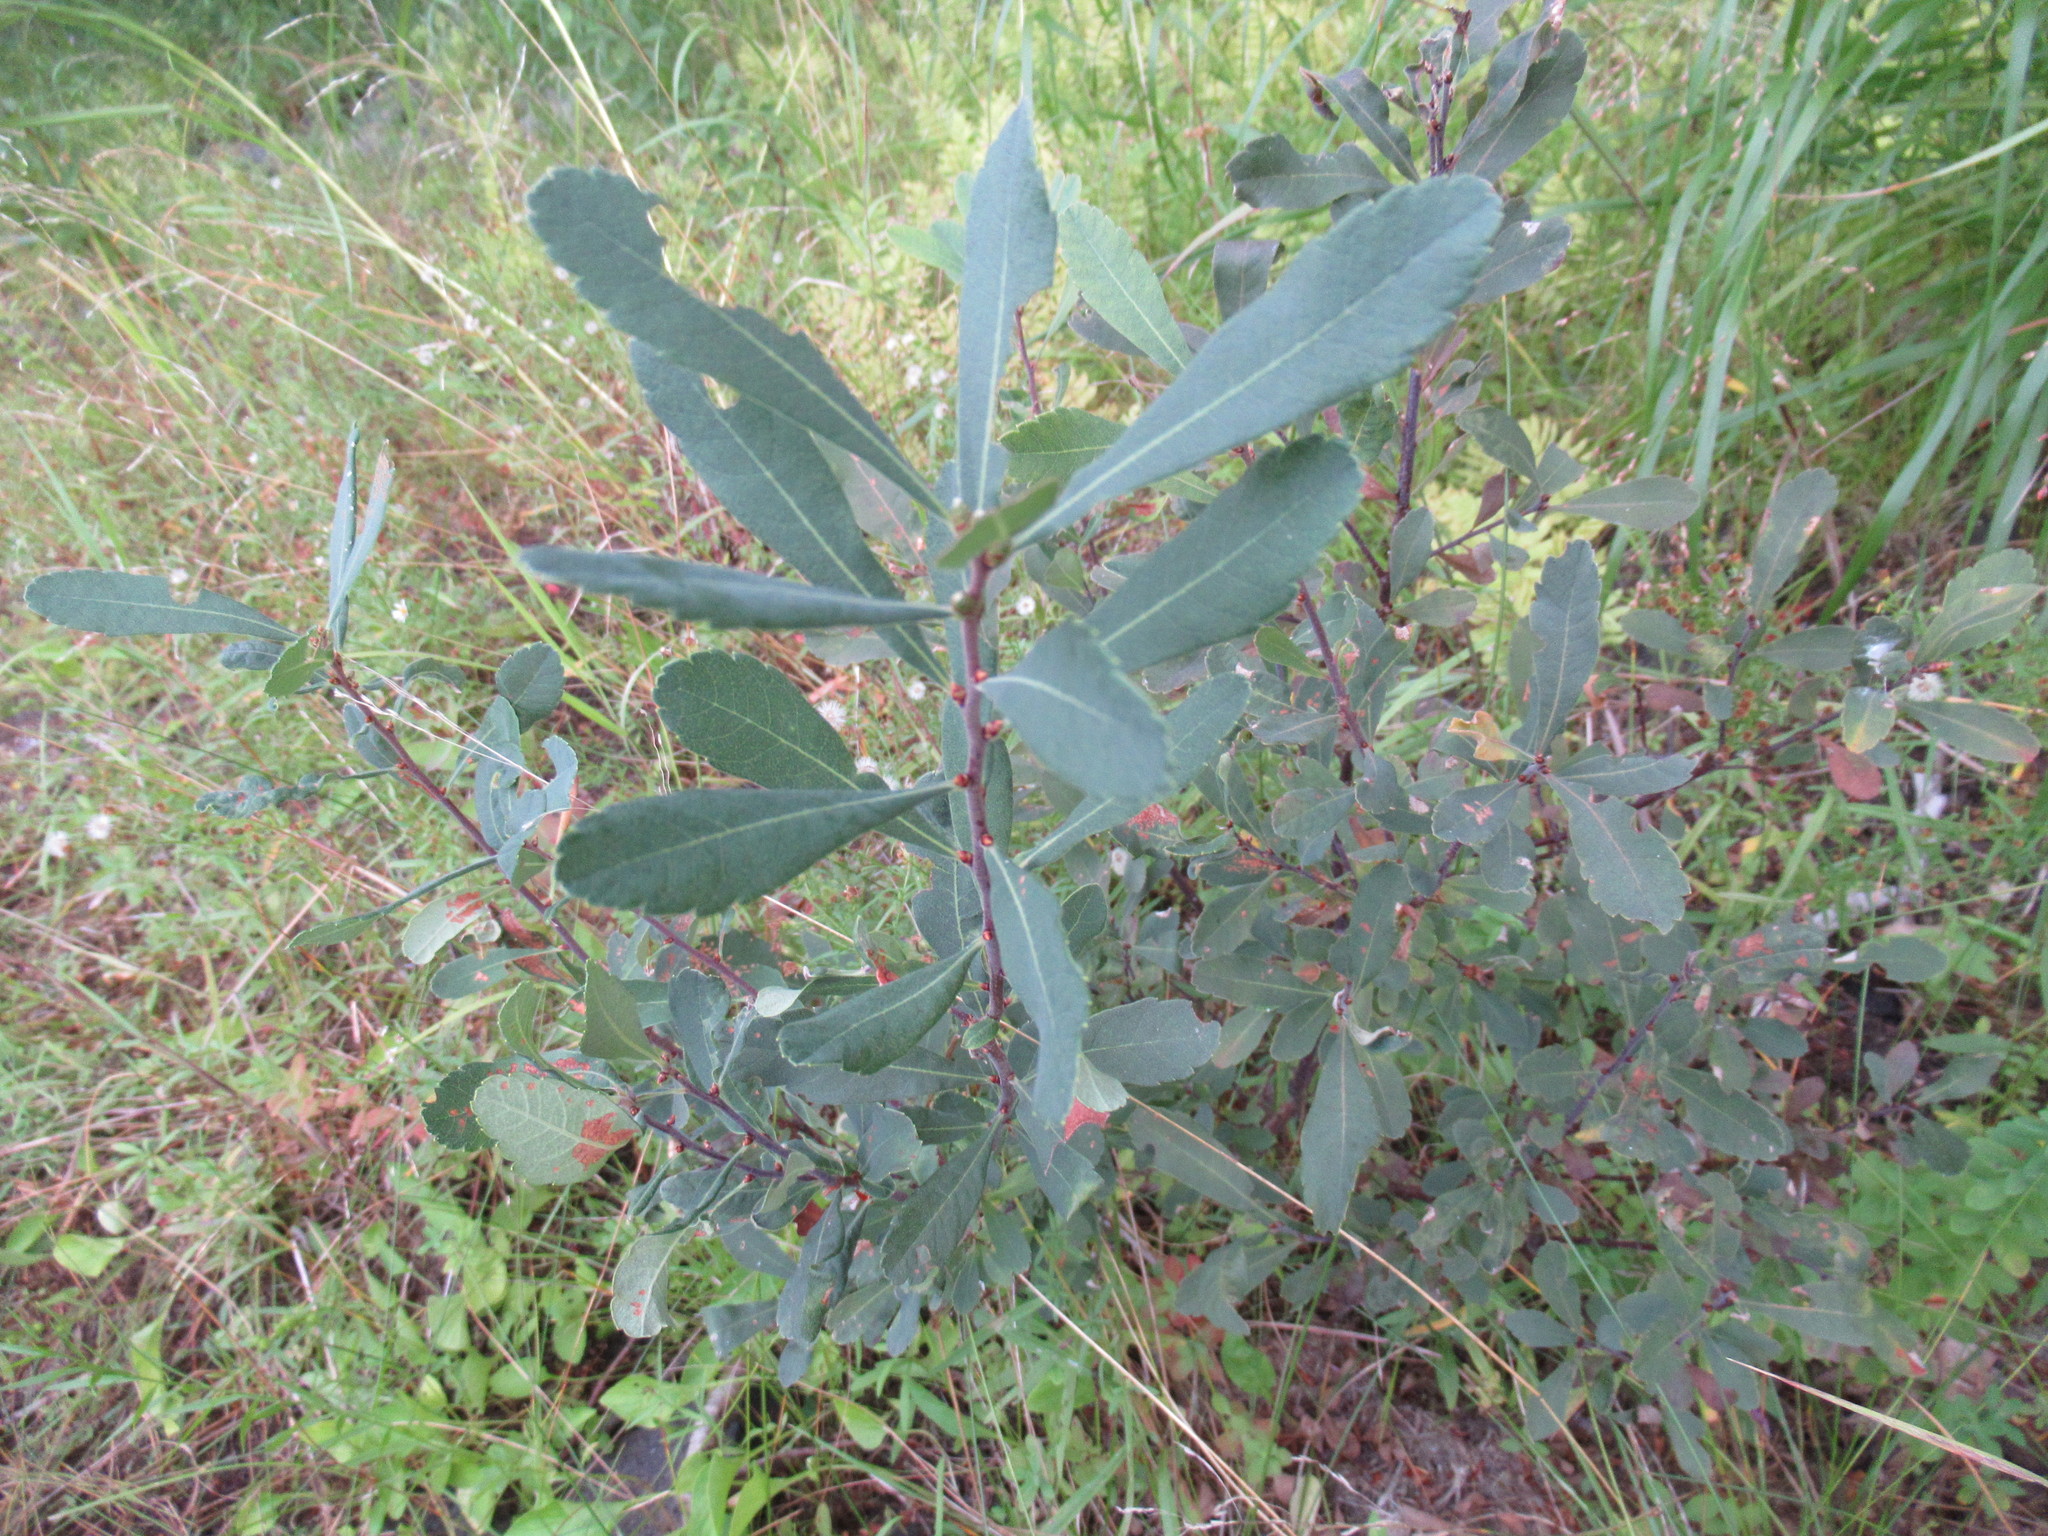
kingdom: Plantae
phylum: Tracheophyta
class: Magnoliopsida
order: Fagales
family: Myricaceae
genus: Myrica
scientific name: Myrica gale
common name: Sweet gale
